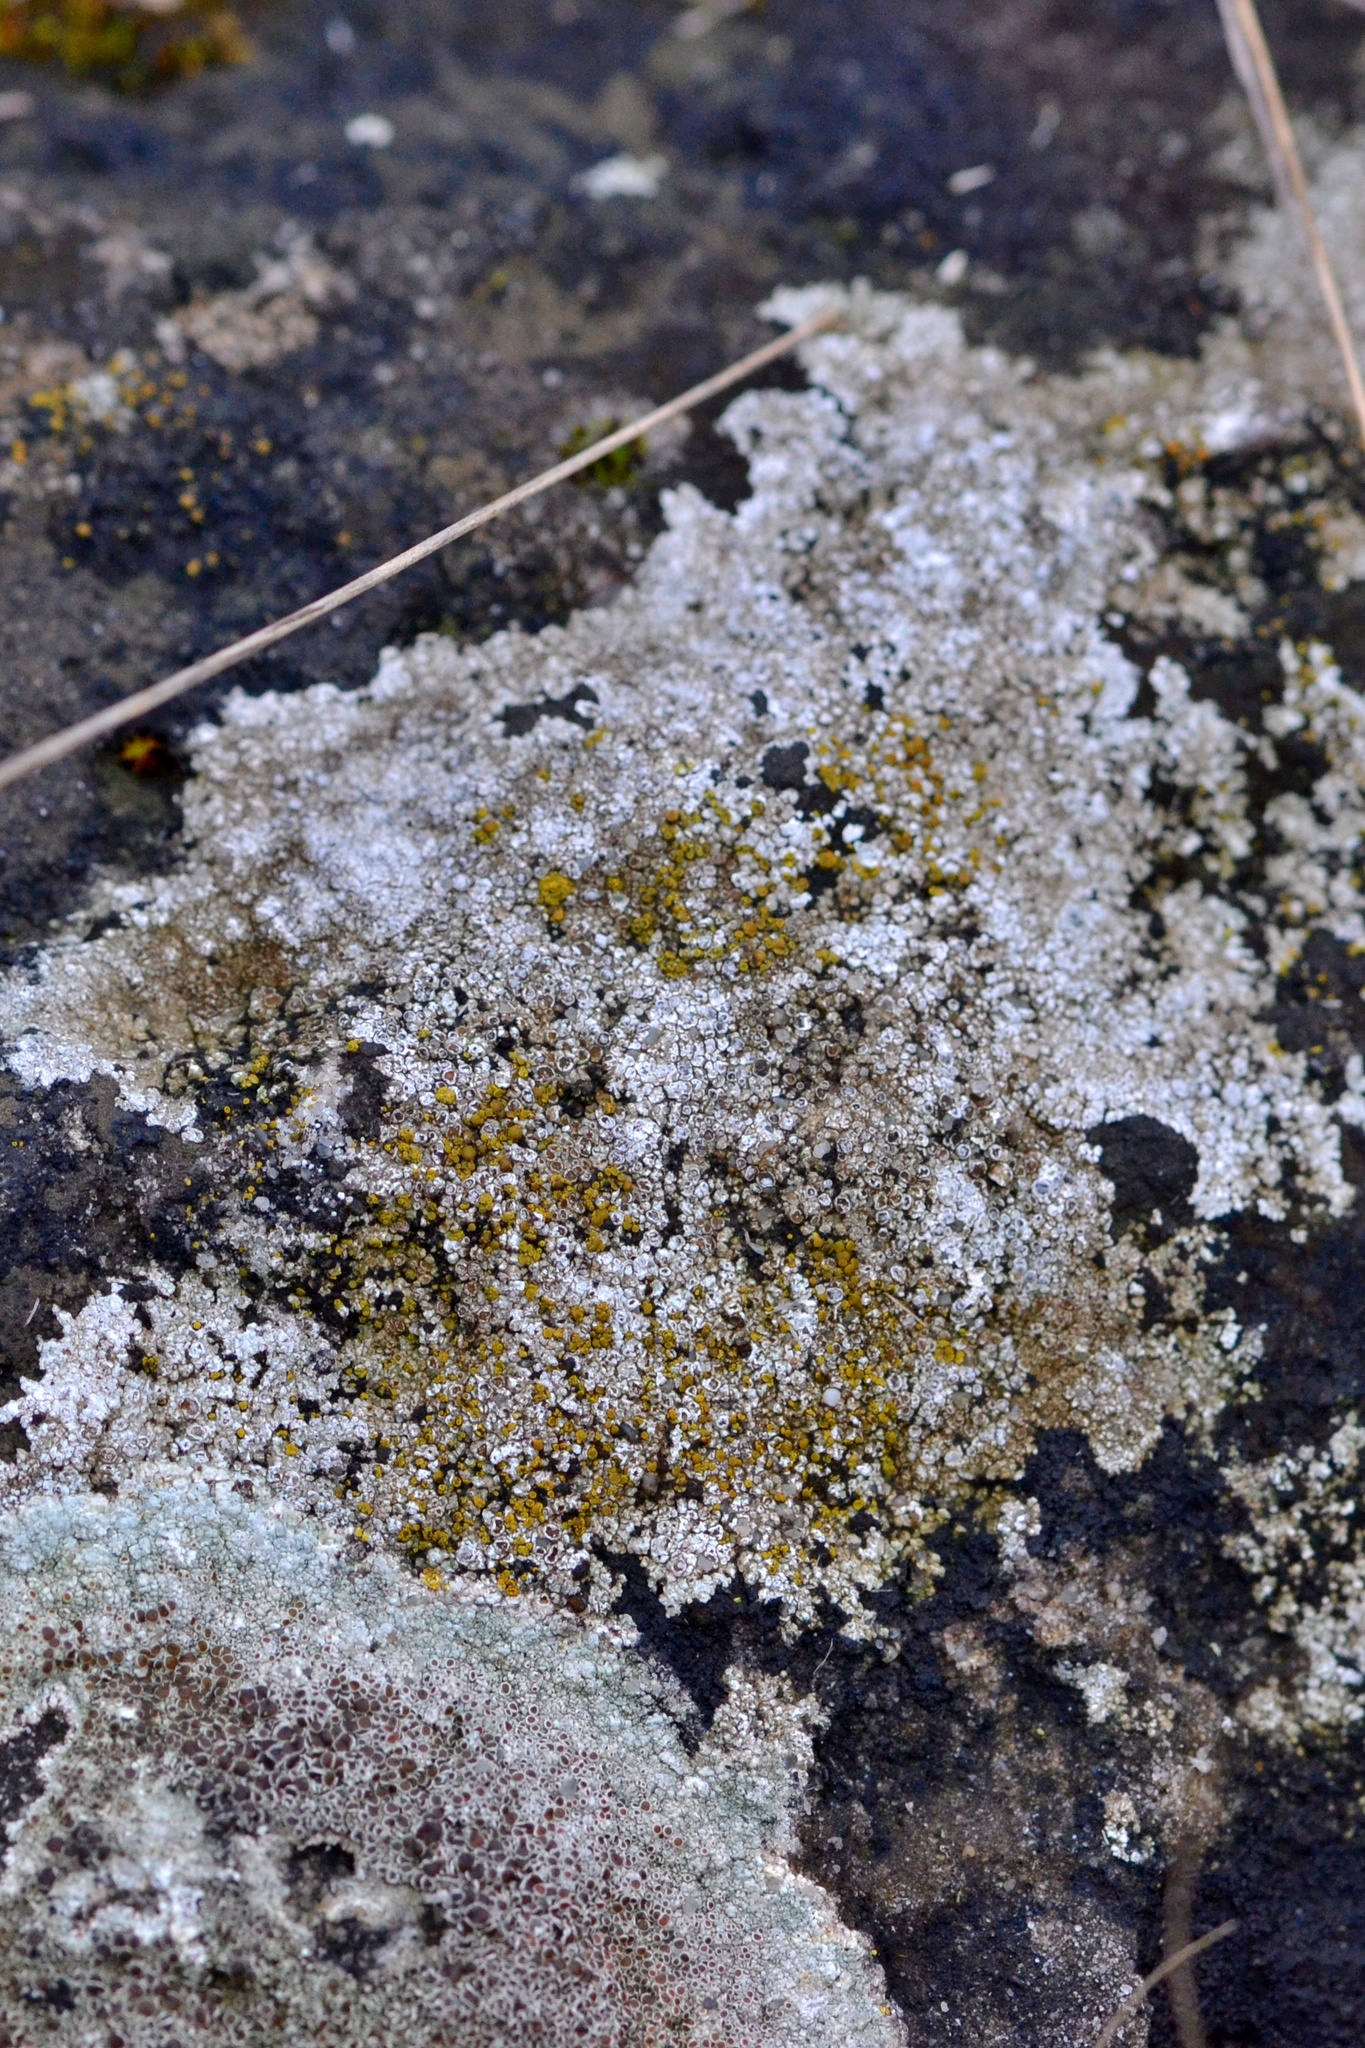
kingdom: Fungi
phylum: Ascomycota
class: Lecanoromycetes
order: Lecanorales
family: Lecanoraceae
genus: Lecanora
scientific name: Lecanora campestris
